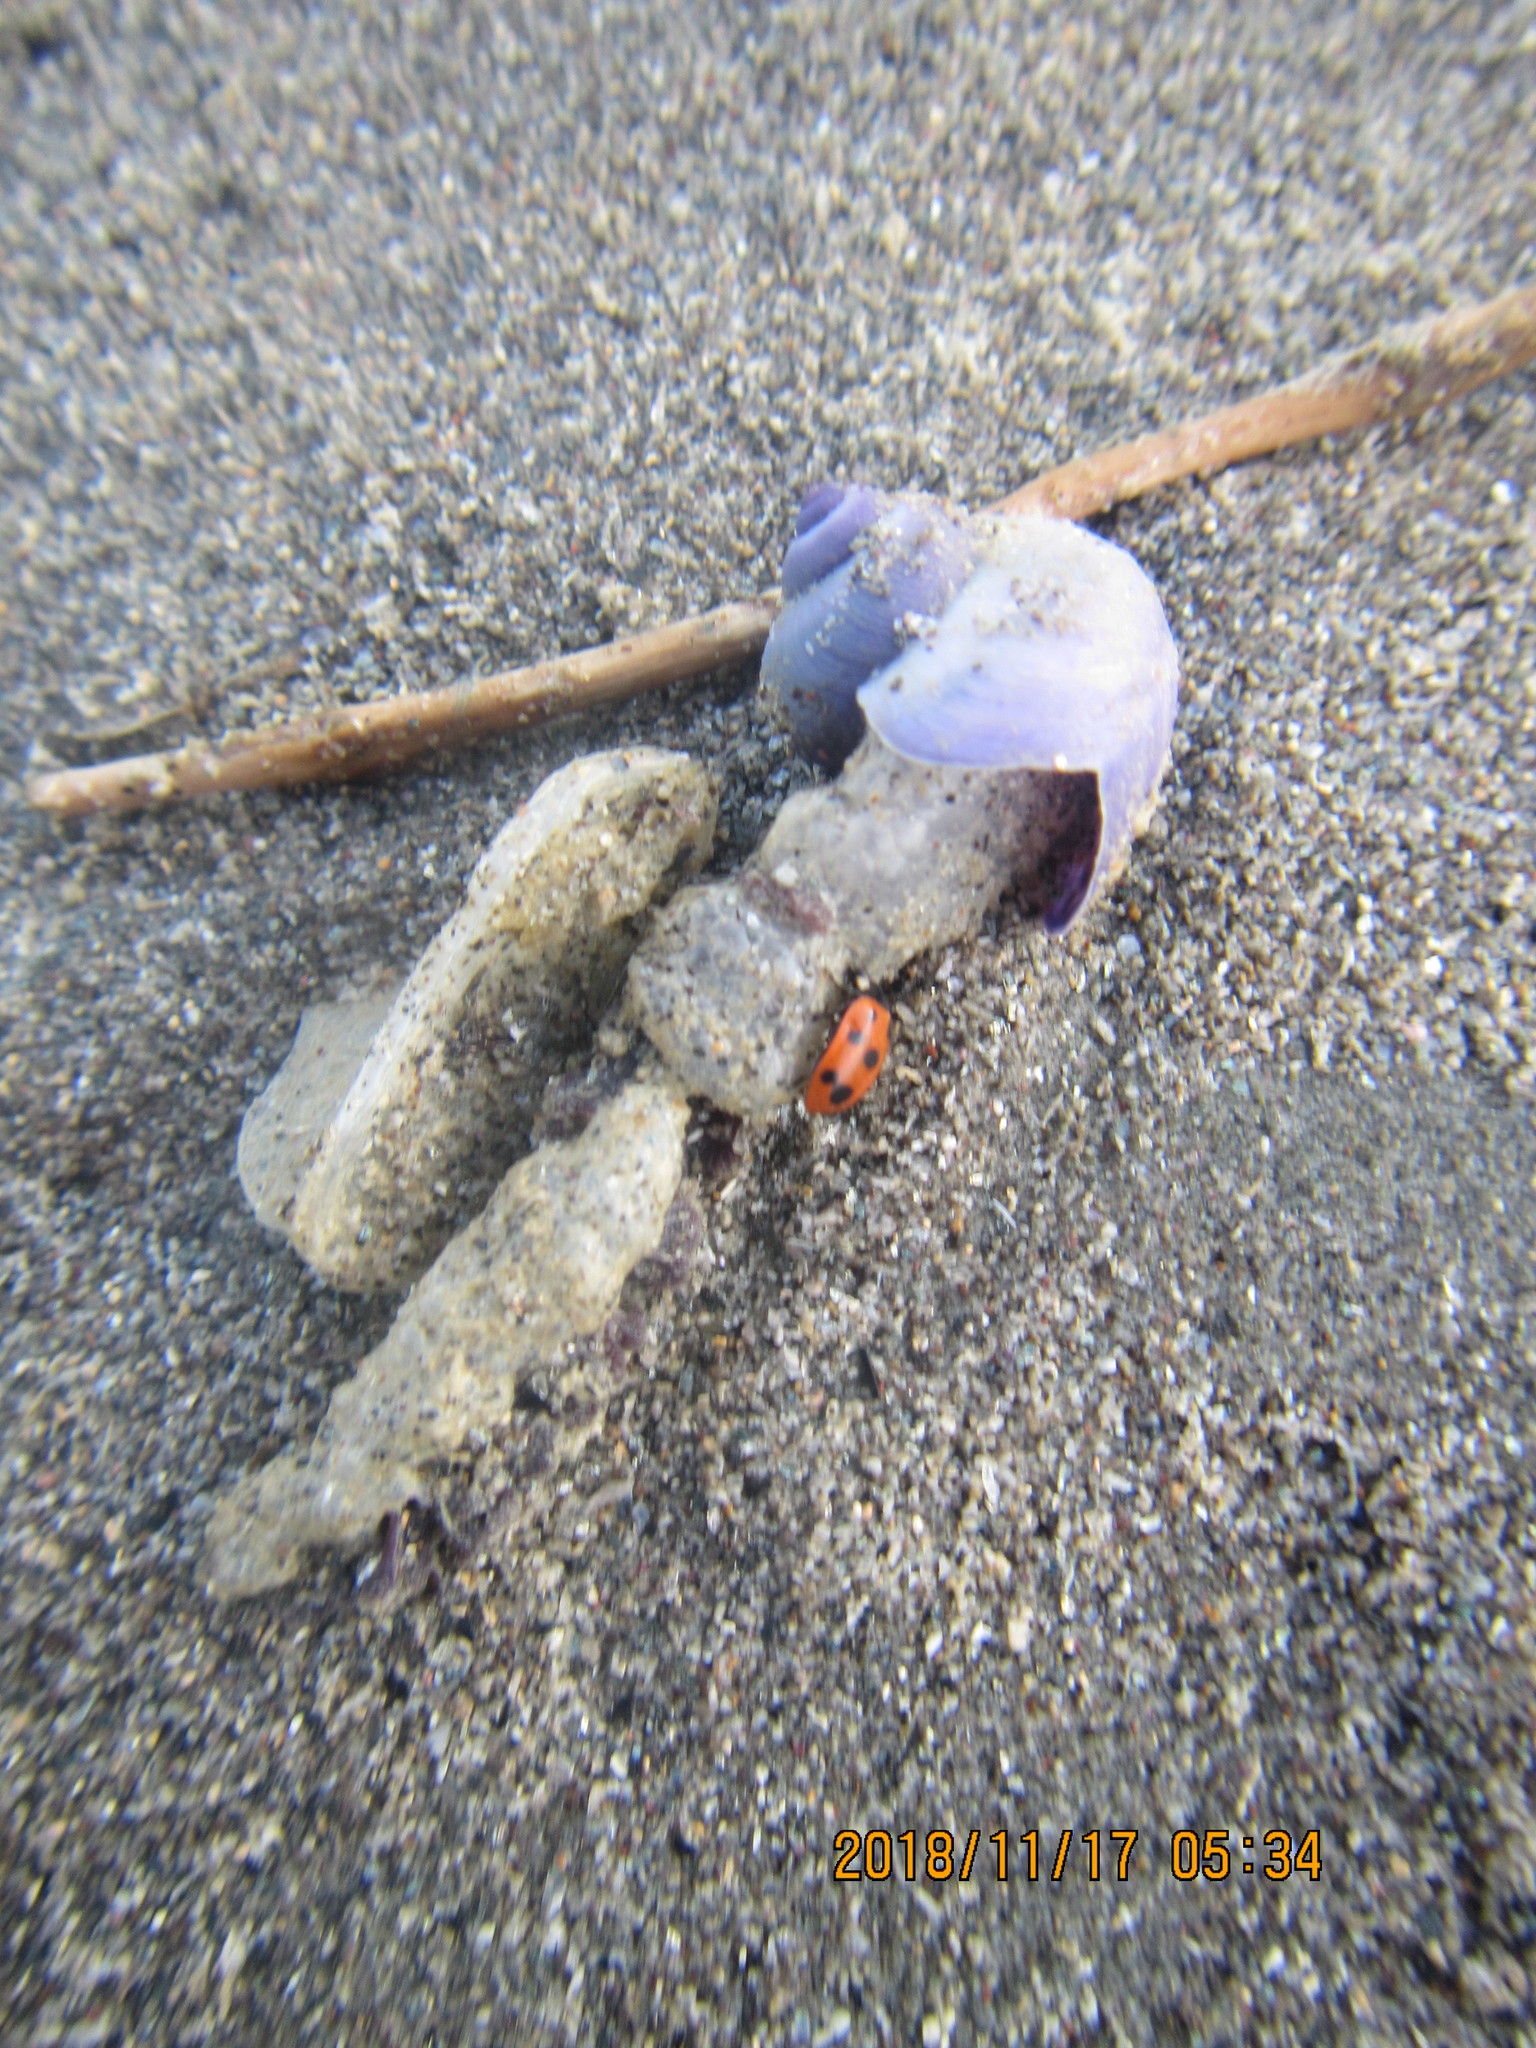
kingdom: Animalia
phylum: Arthropoda
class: Insecta
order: Coleoptera
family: Coccinellidae
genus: Coccinella
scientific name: Coccinella undecimpunctata
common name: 11-spot ladybird
